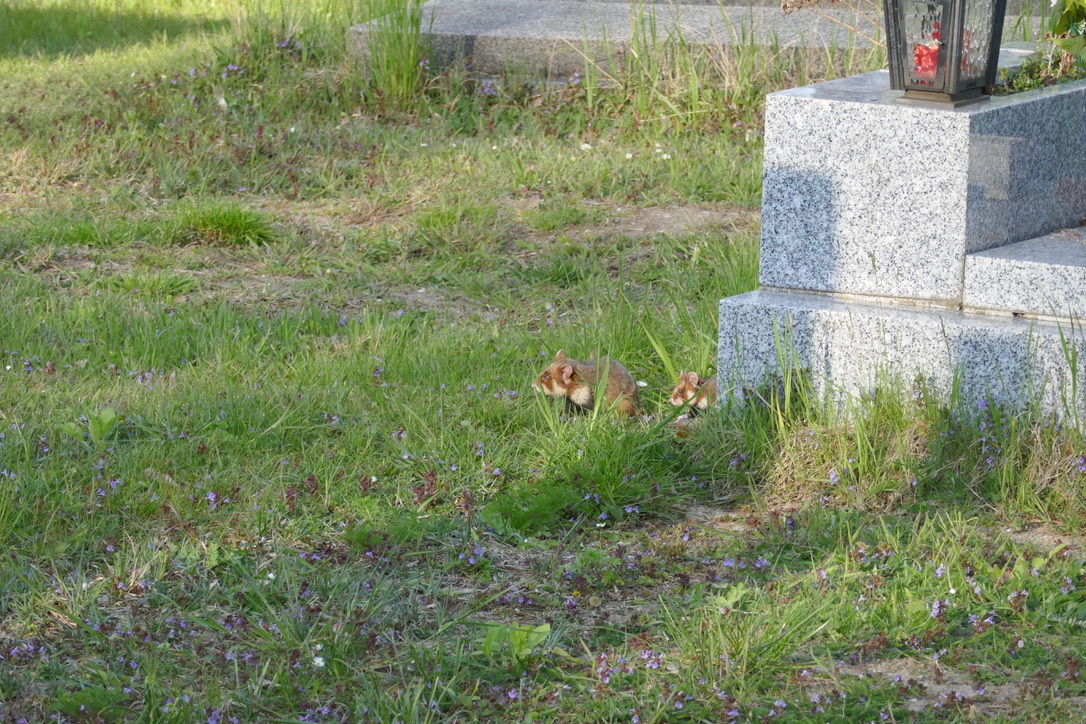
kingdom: Animalia
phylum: Chordata
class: Mammalia
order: Rodentia
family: Cricetidae
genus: Cricetus
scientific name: Cricetus cricetus
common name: Common hamster
